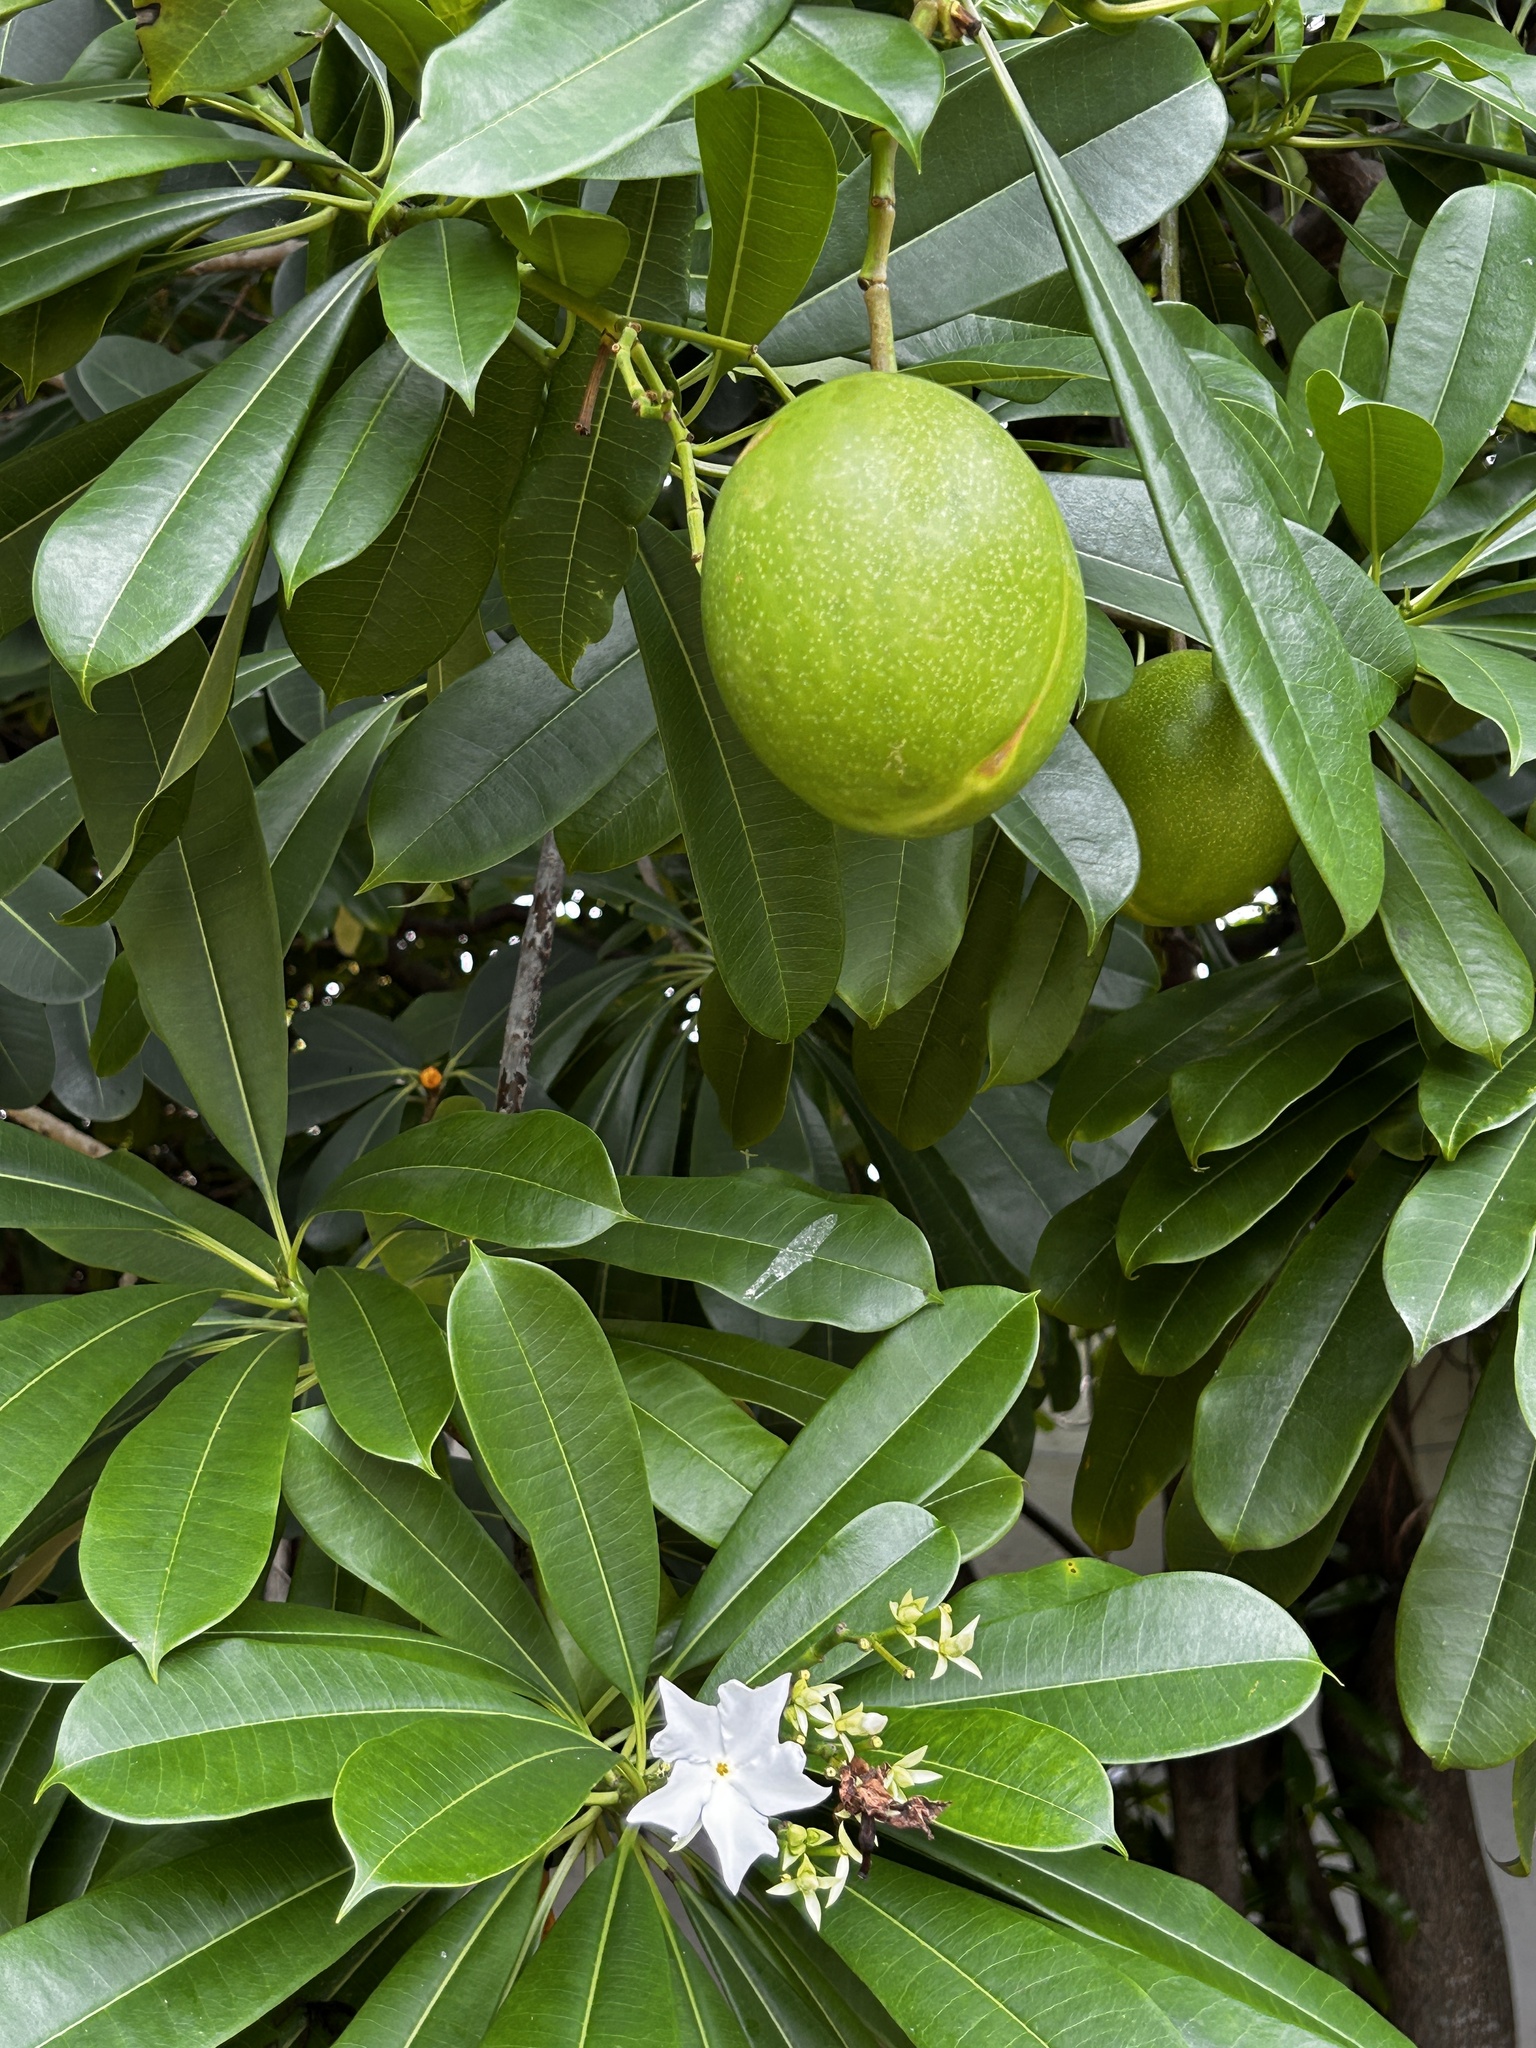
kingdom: Plantae
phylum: Tracheophyta
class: Magnoliopsida
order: Gentianales
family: Apocynaceae
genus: Cerbera
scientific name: Cerbera odollam
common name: Pong-pong
